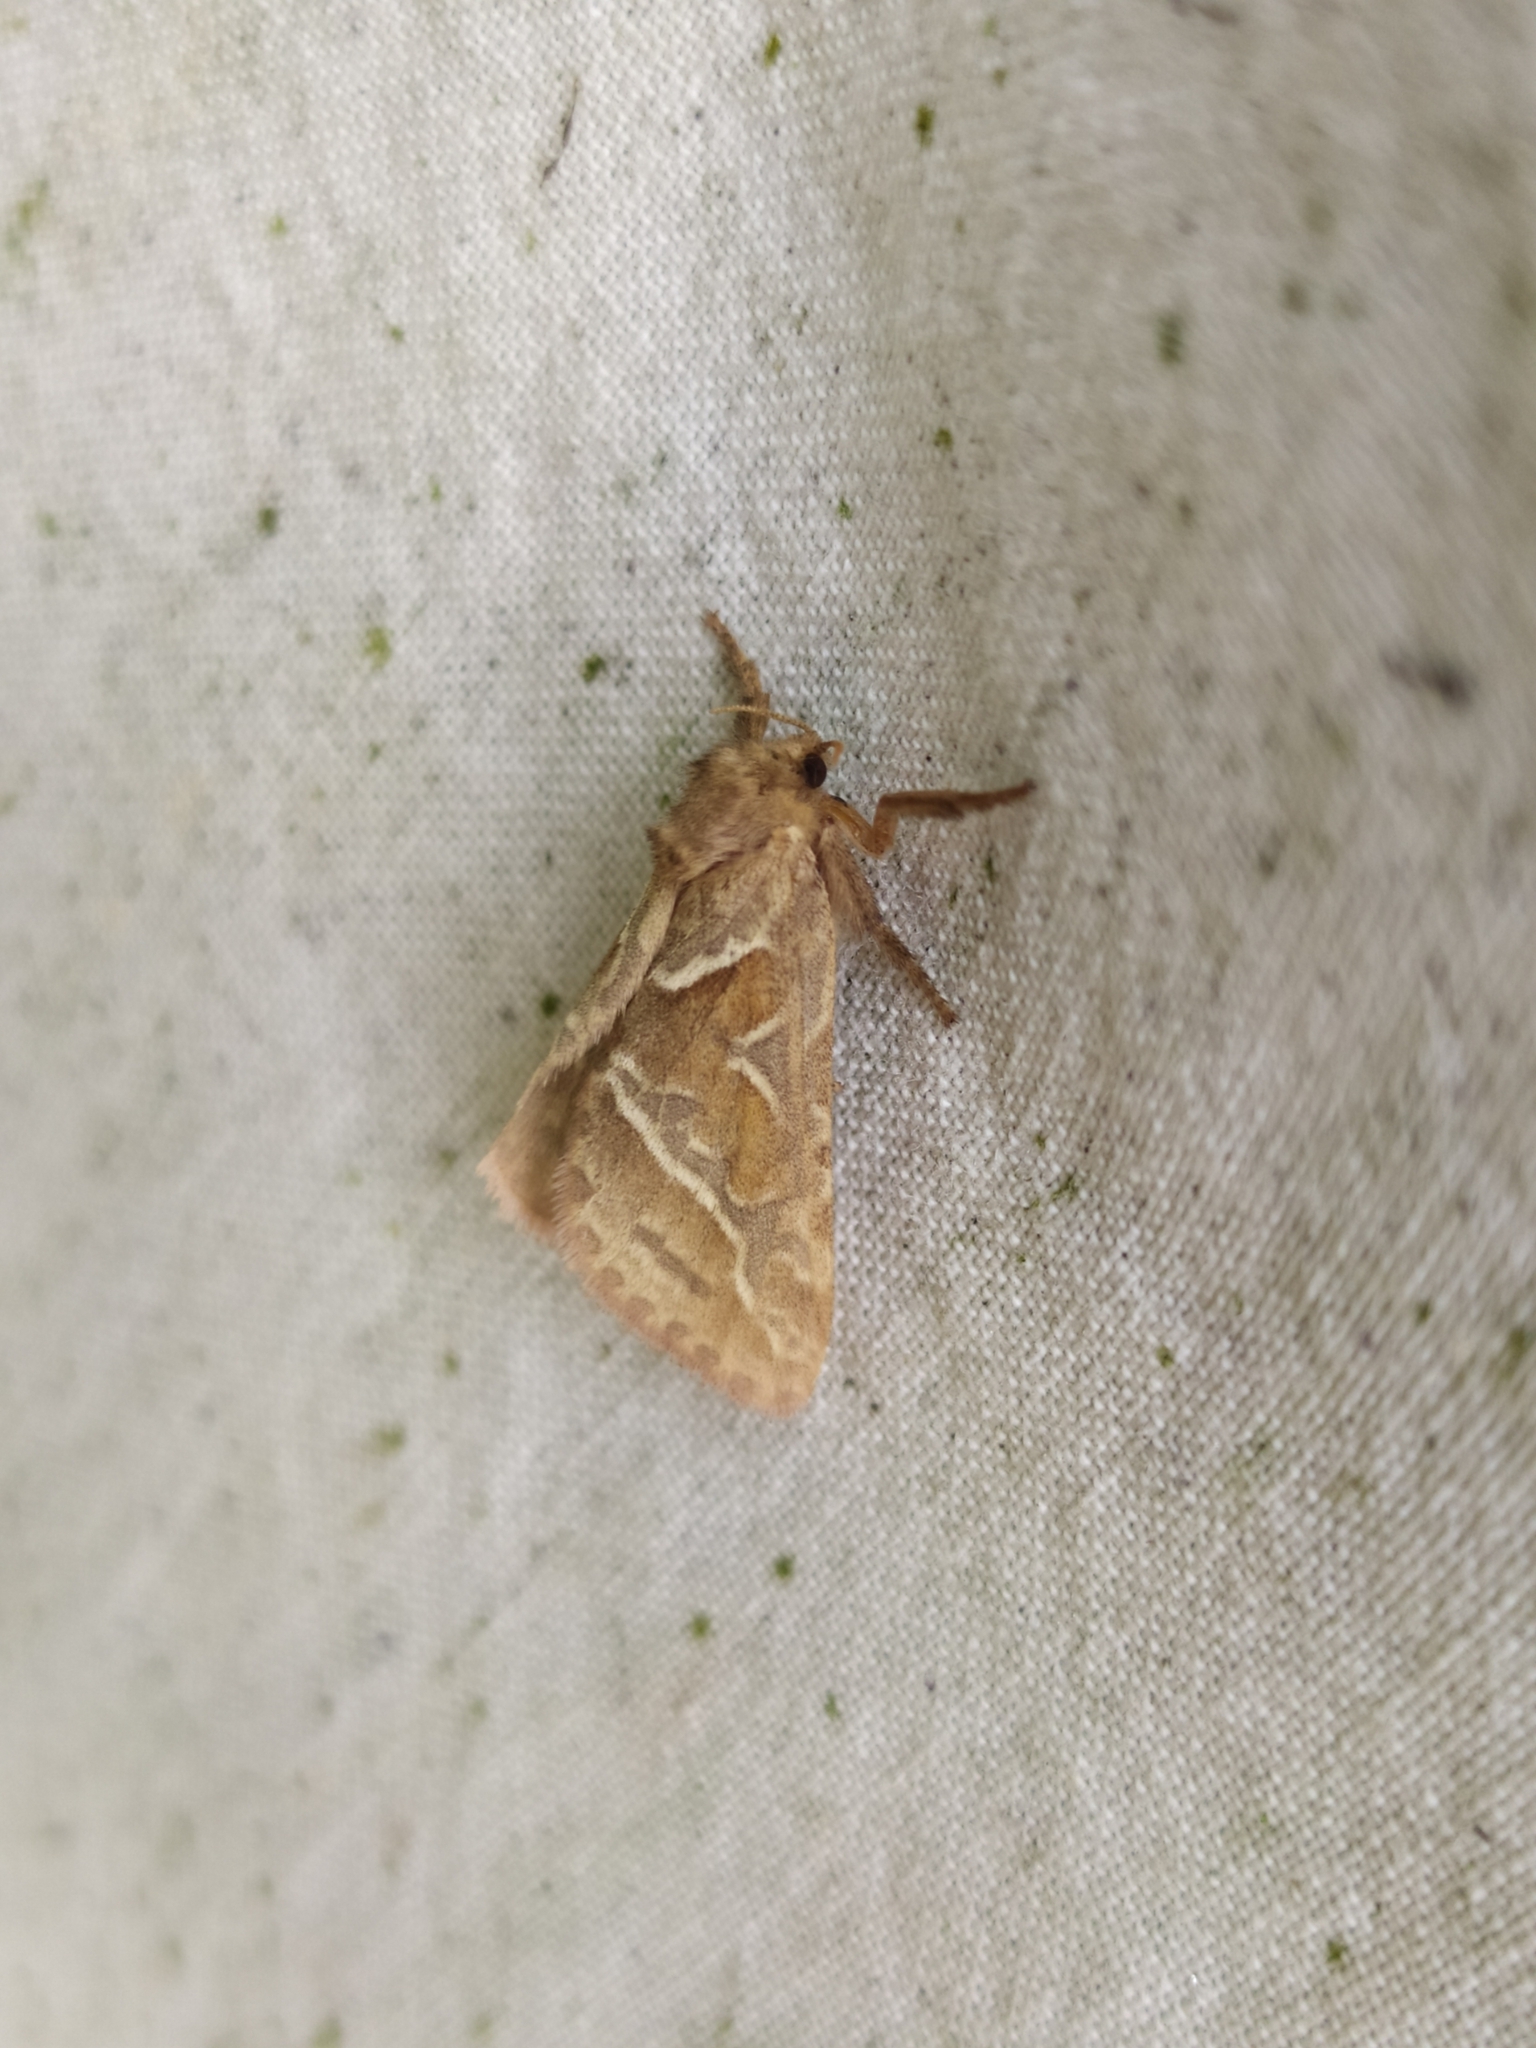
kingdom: Animalia
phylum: Arthropoda
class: Insecta
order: Lepidoptera
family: Hepialidae
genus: Triodia
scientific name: Triodia sylvina
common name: Orange swift
